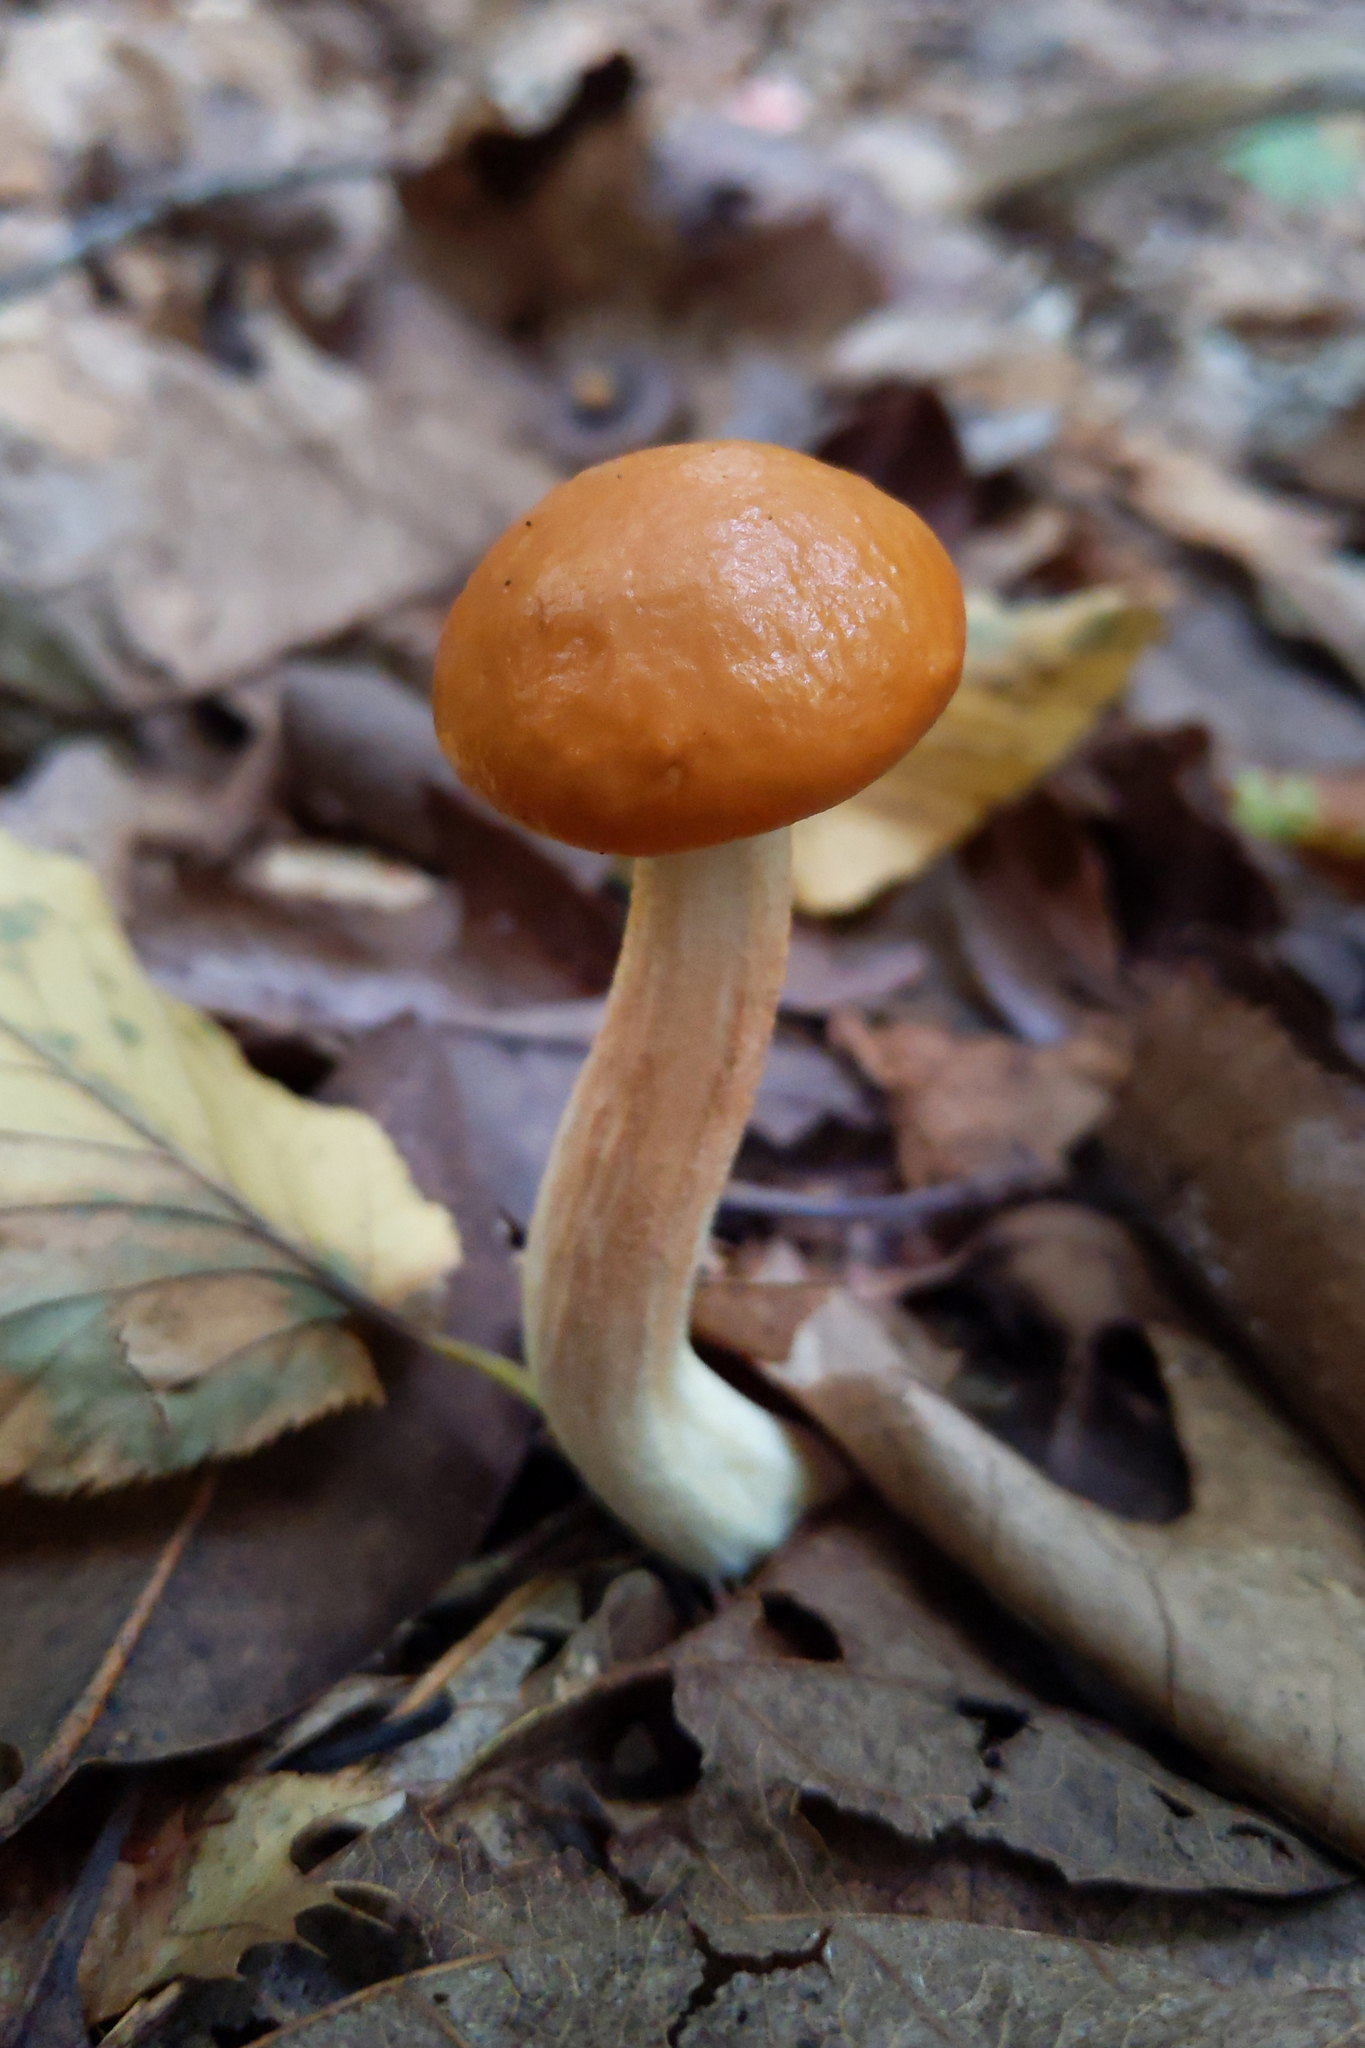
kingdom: Fungi
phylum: Basidiomycota
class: Agaricomycetes
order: Boletales
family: Boletaceae
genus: Leccinum
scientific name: Leccinum longicurvipes
